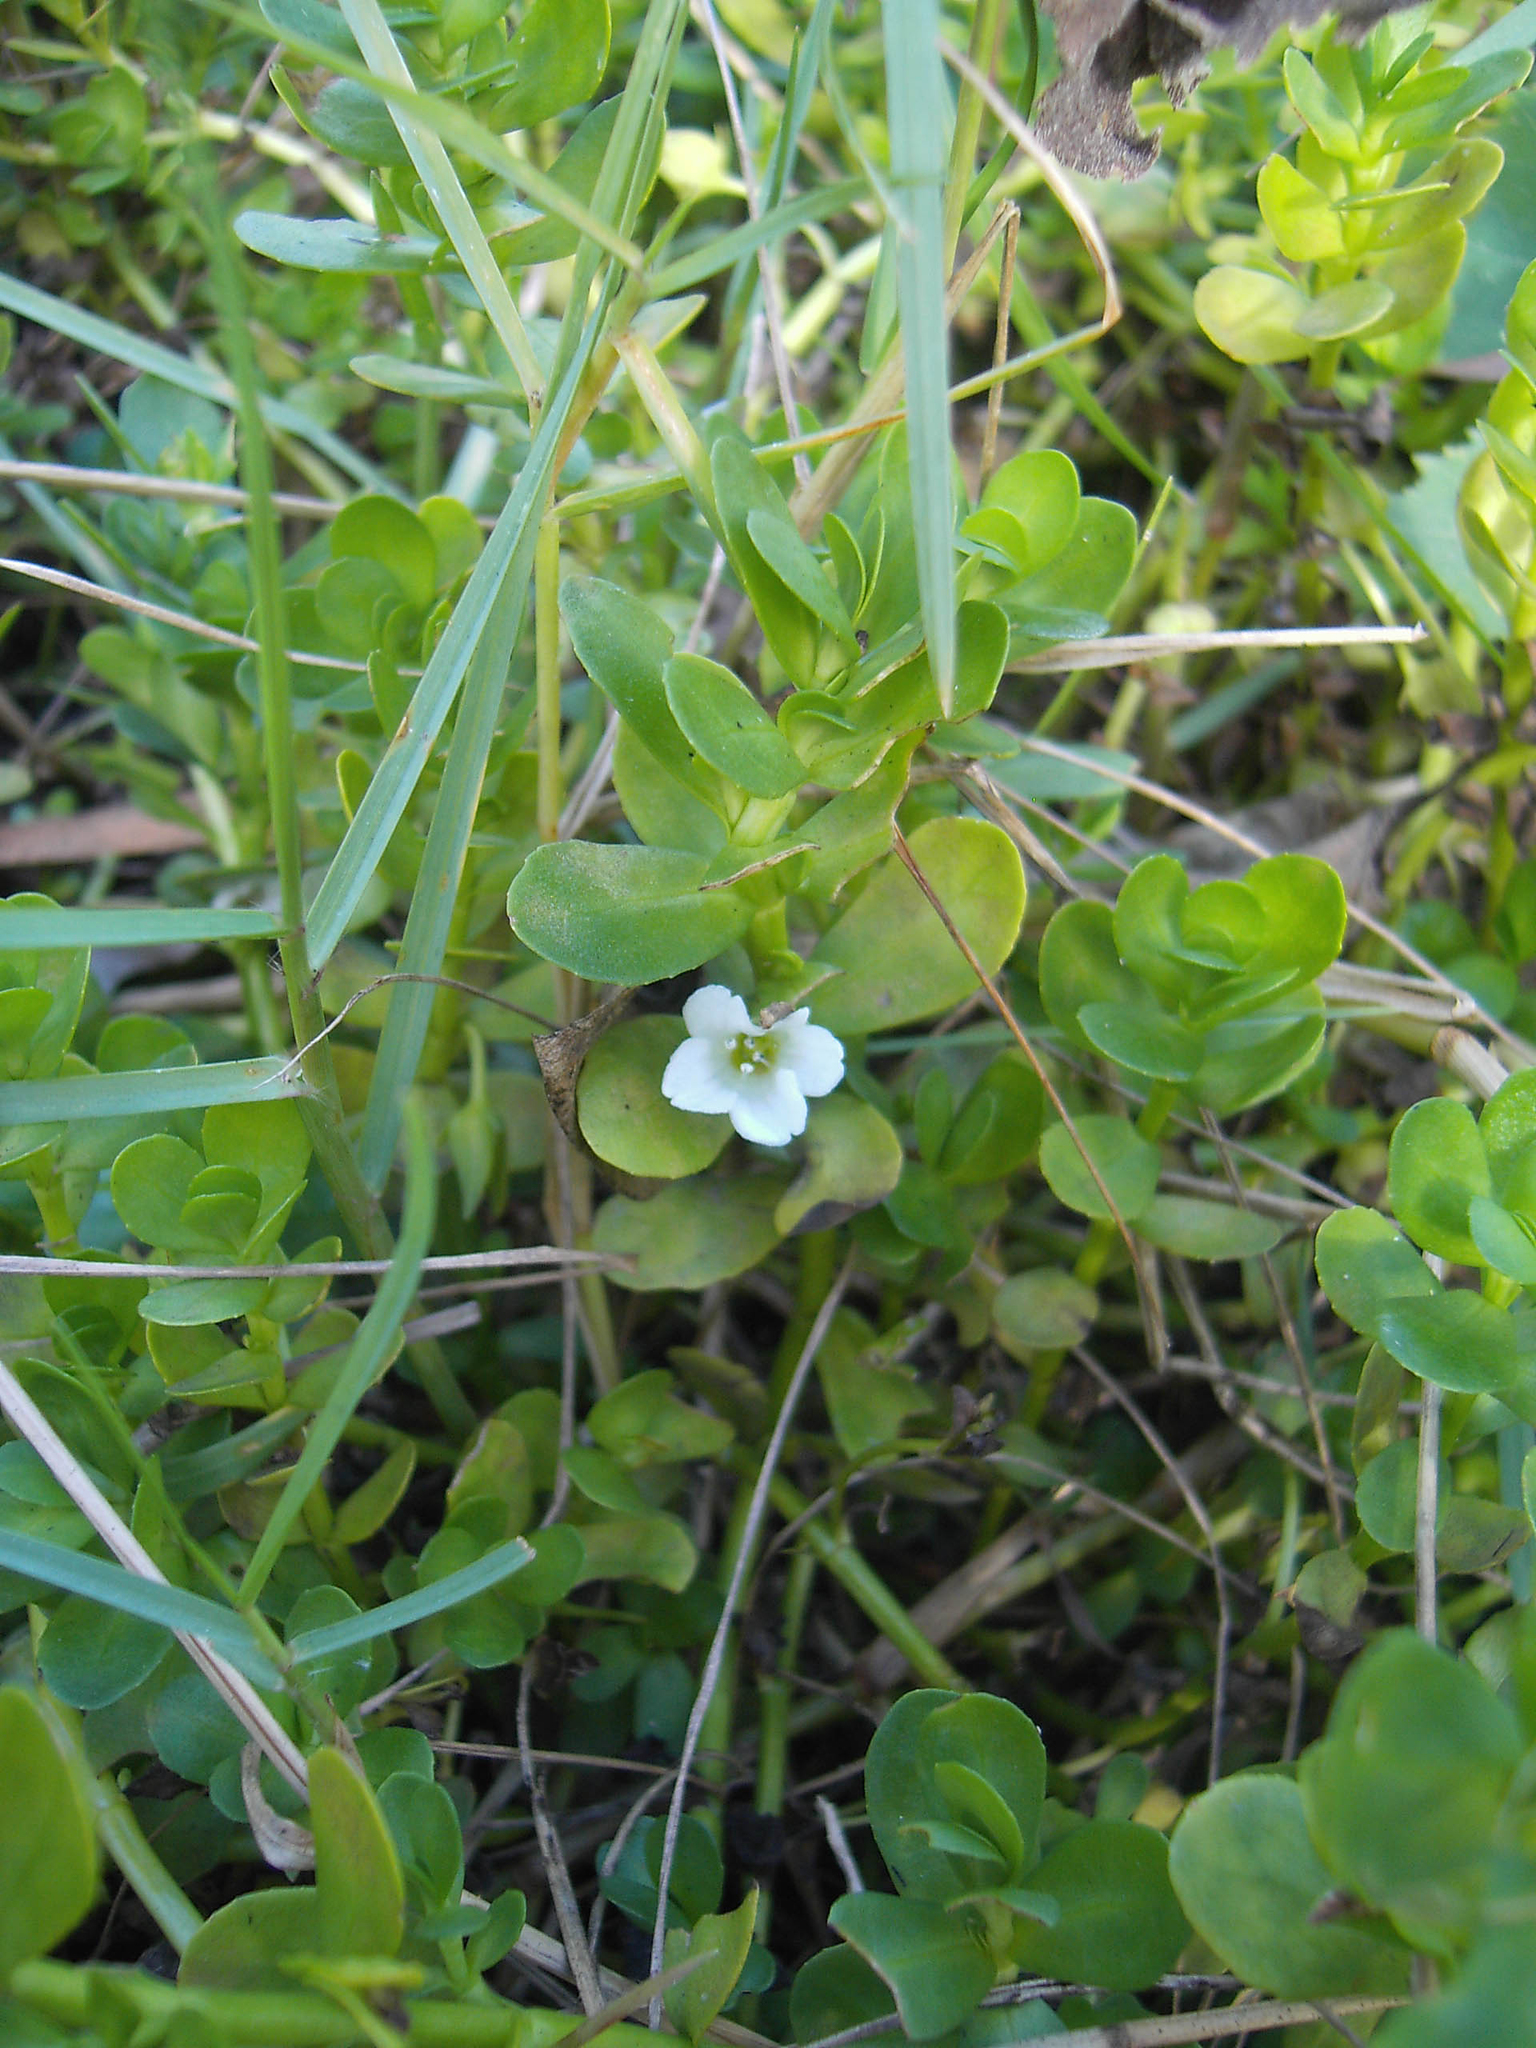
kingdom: Plantae
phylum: Tracheophyta
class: Magnoliopsida
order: Lamiales
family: Plantaginaceae
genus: Bacopa
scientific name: Bacopa monnieri
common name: Indian-pennywort
